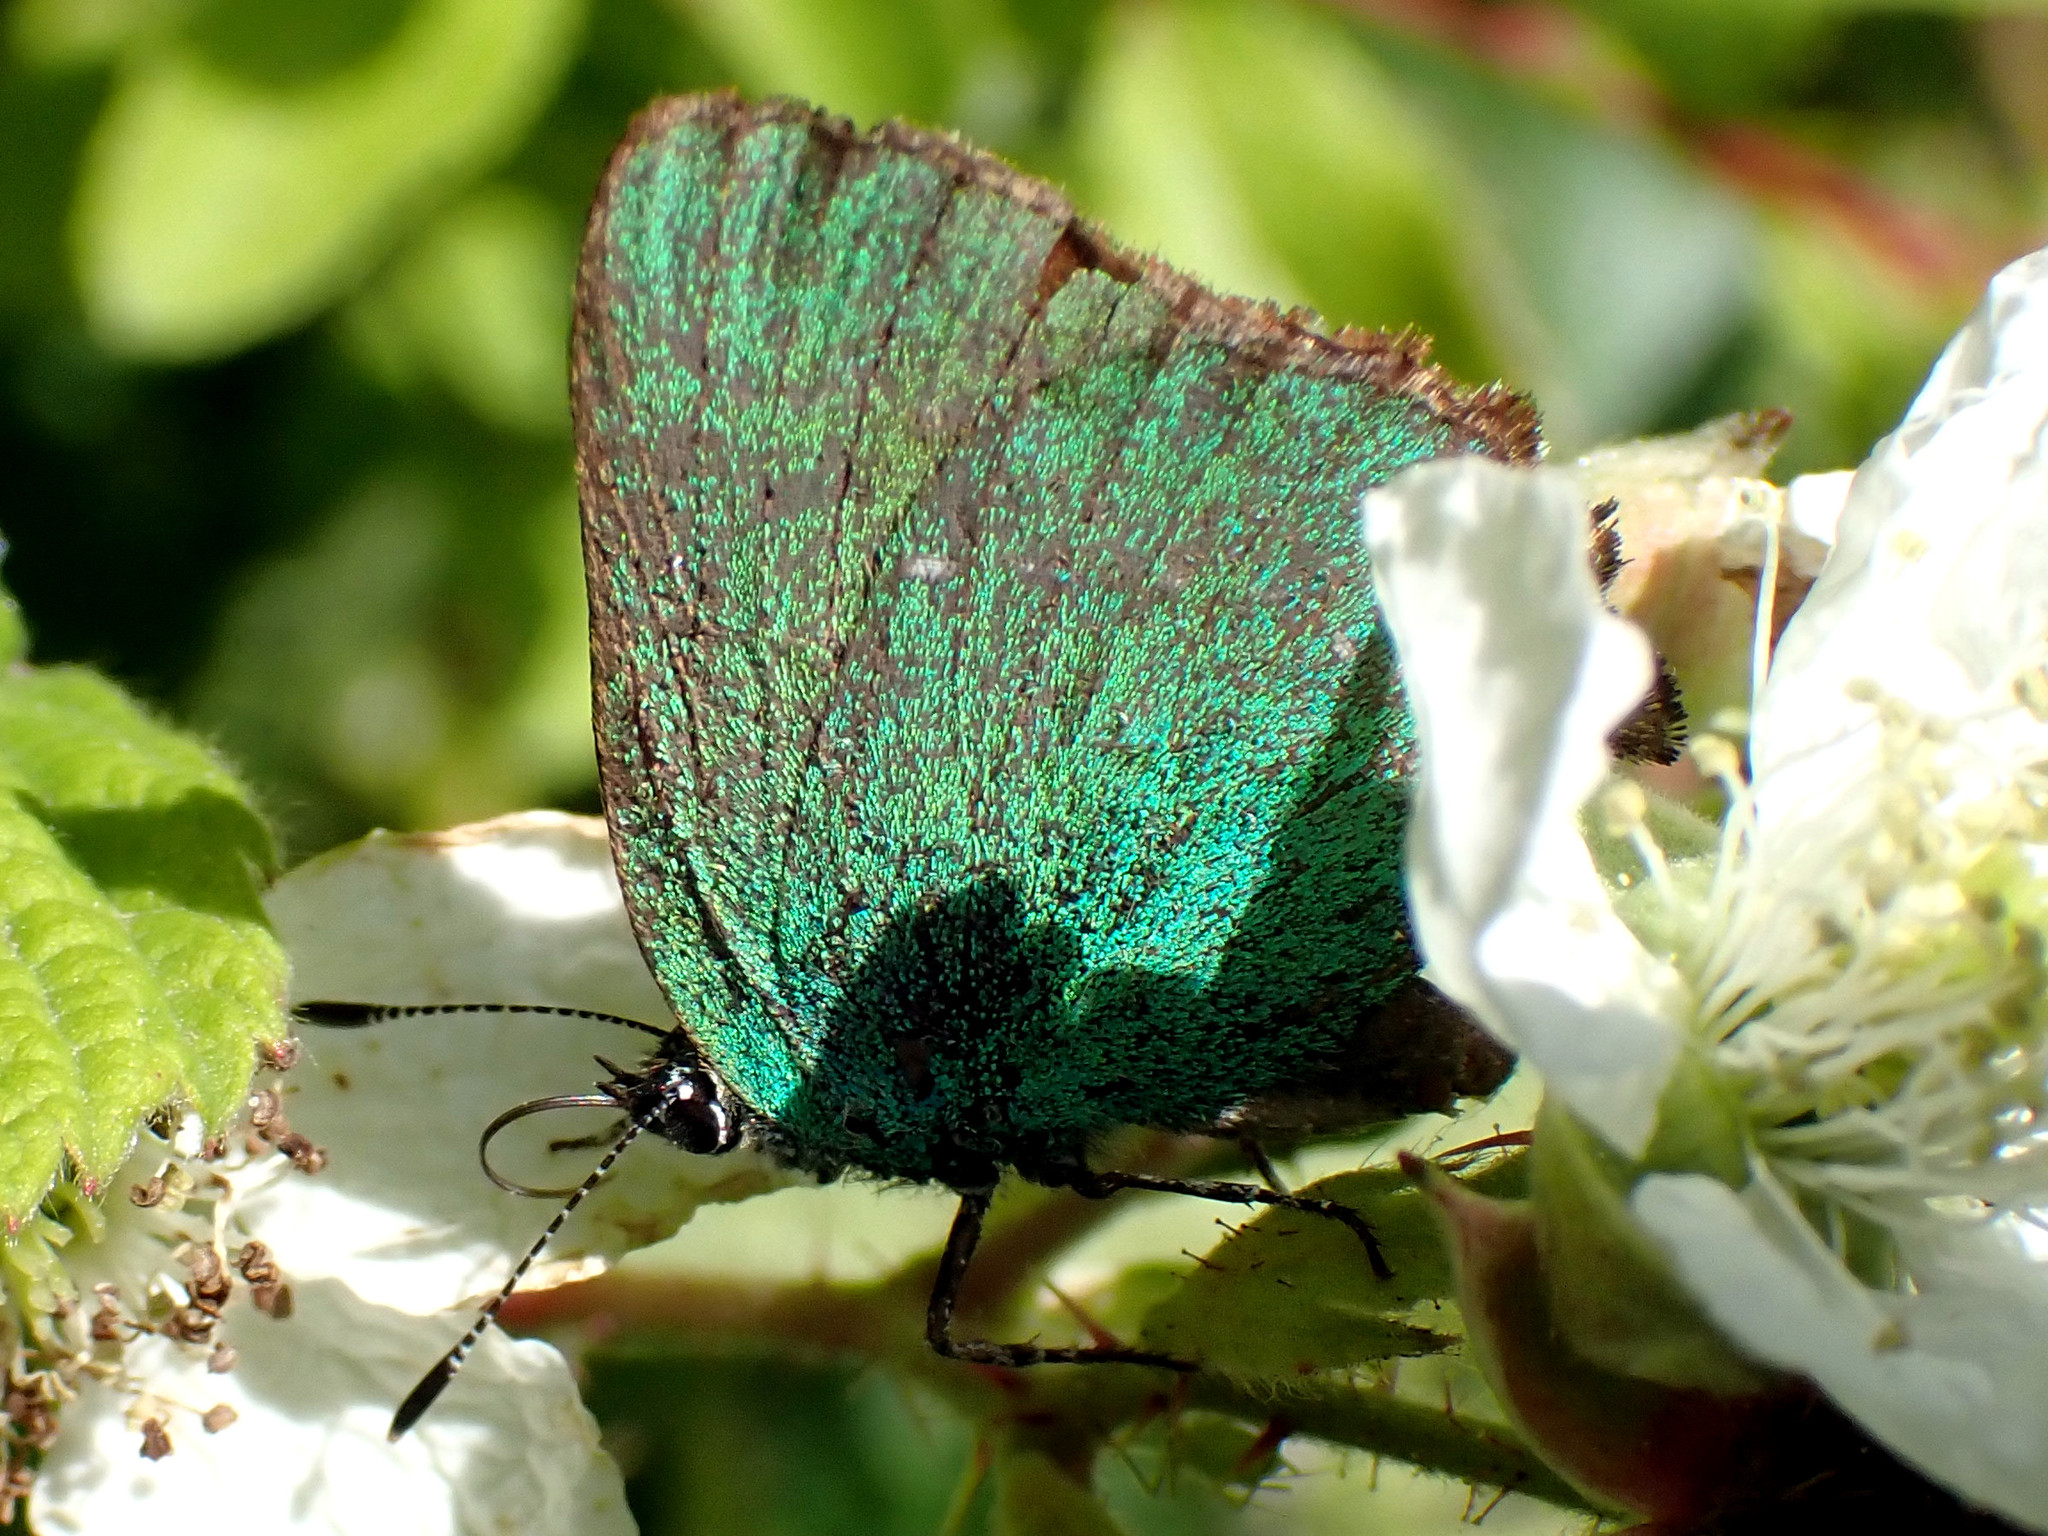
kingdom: Animalia
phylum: Arthropoda
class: Insecta
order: Lepidoptera
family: Lycaenidae
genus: Callophrys
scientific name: Callophrys rubi
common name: Green hairstreak
